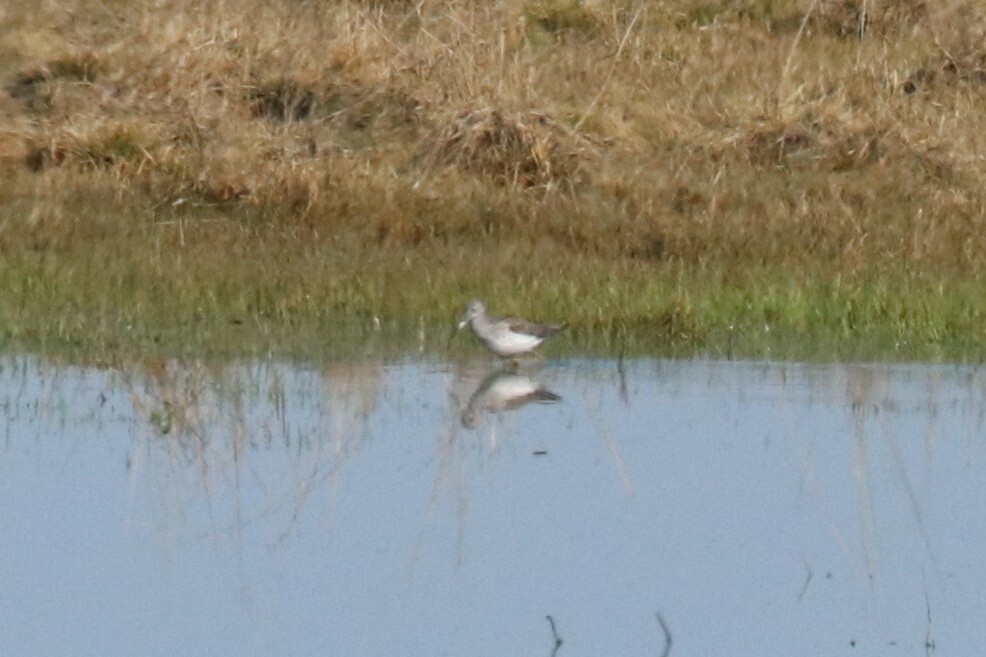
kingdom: Animalia
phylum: Chordata
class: Aves
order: Charadriiformes
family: Scolopacidae
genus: Tringa
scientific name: Tringa nebularia
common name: Common greenshank
